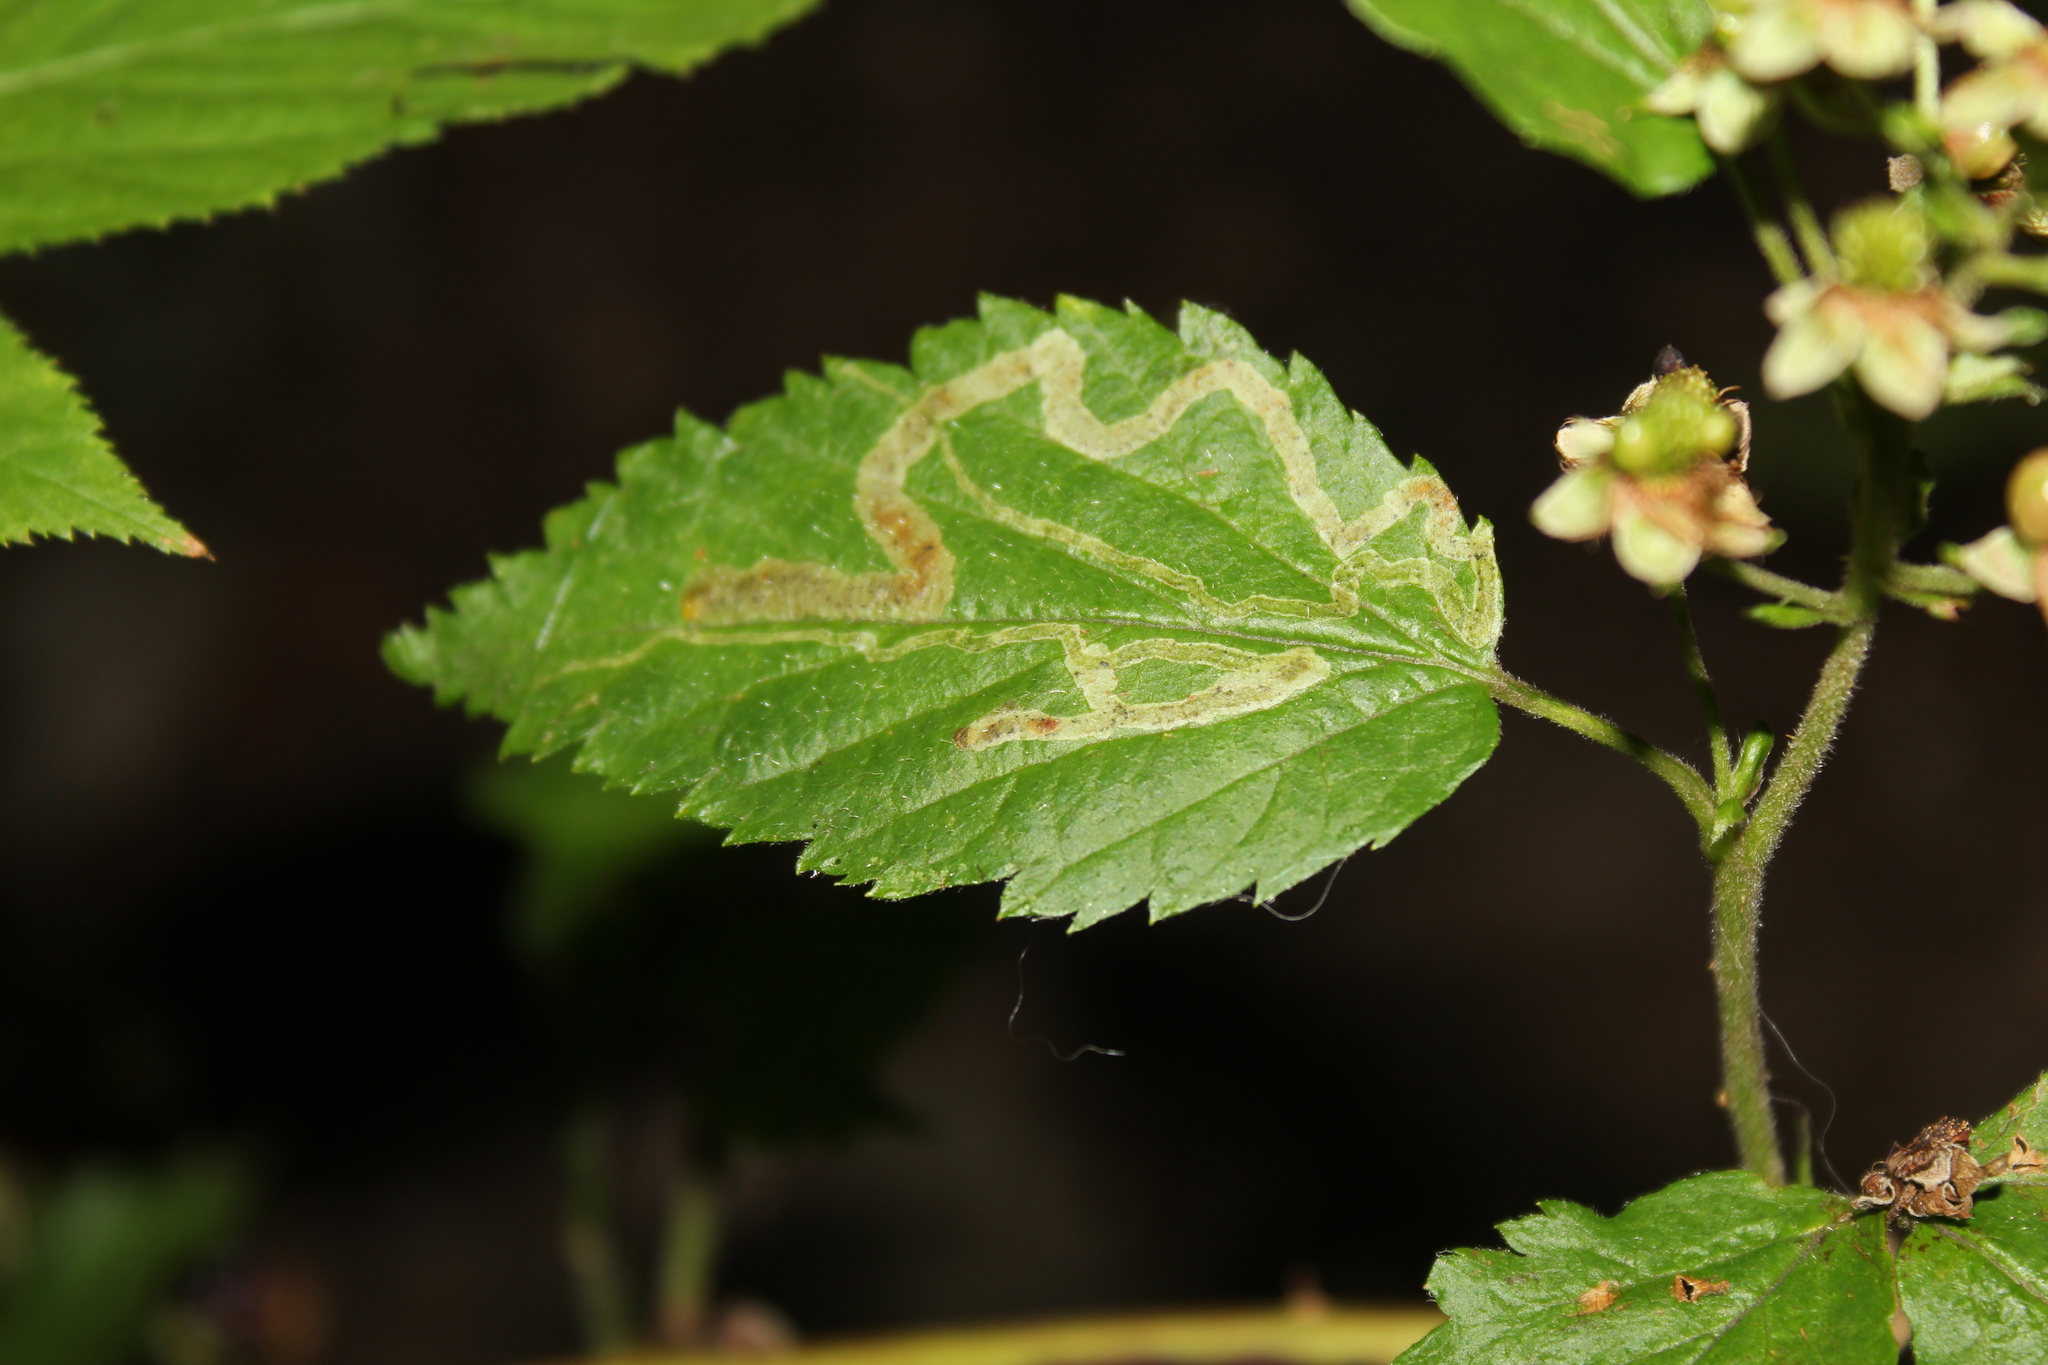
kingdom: Animalia
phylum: Arthropoda
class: Insecta
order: Diptera
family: Agromyzidae
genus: Agromyza
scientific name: Agromyza vockerothi
